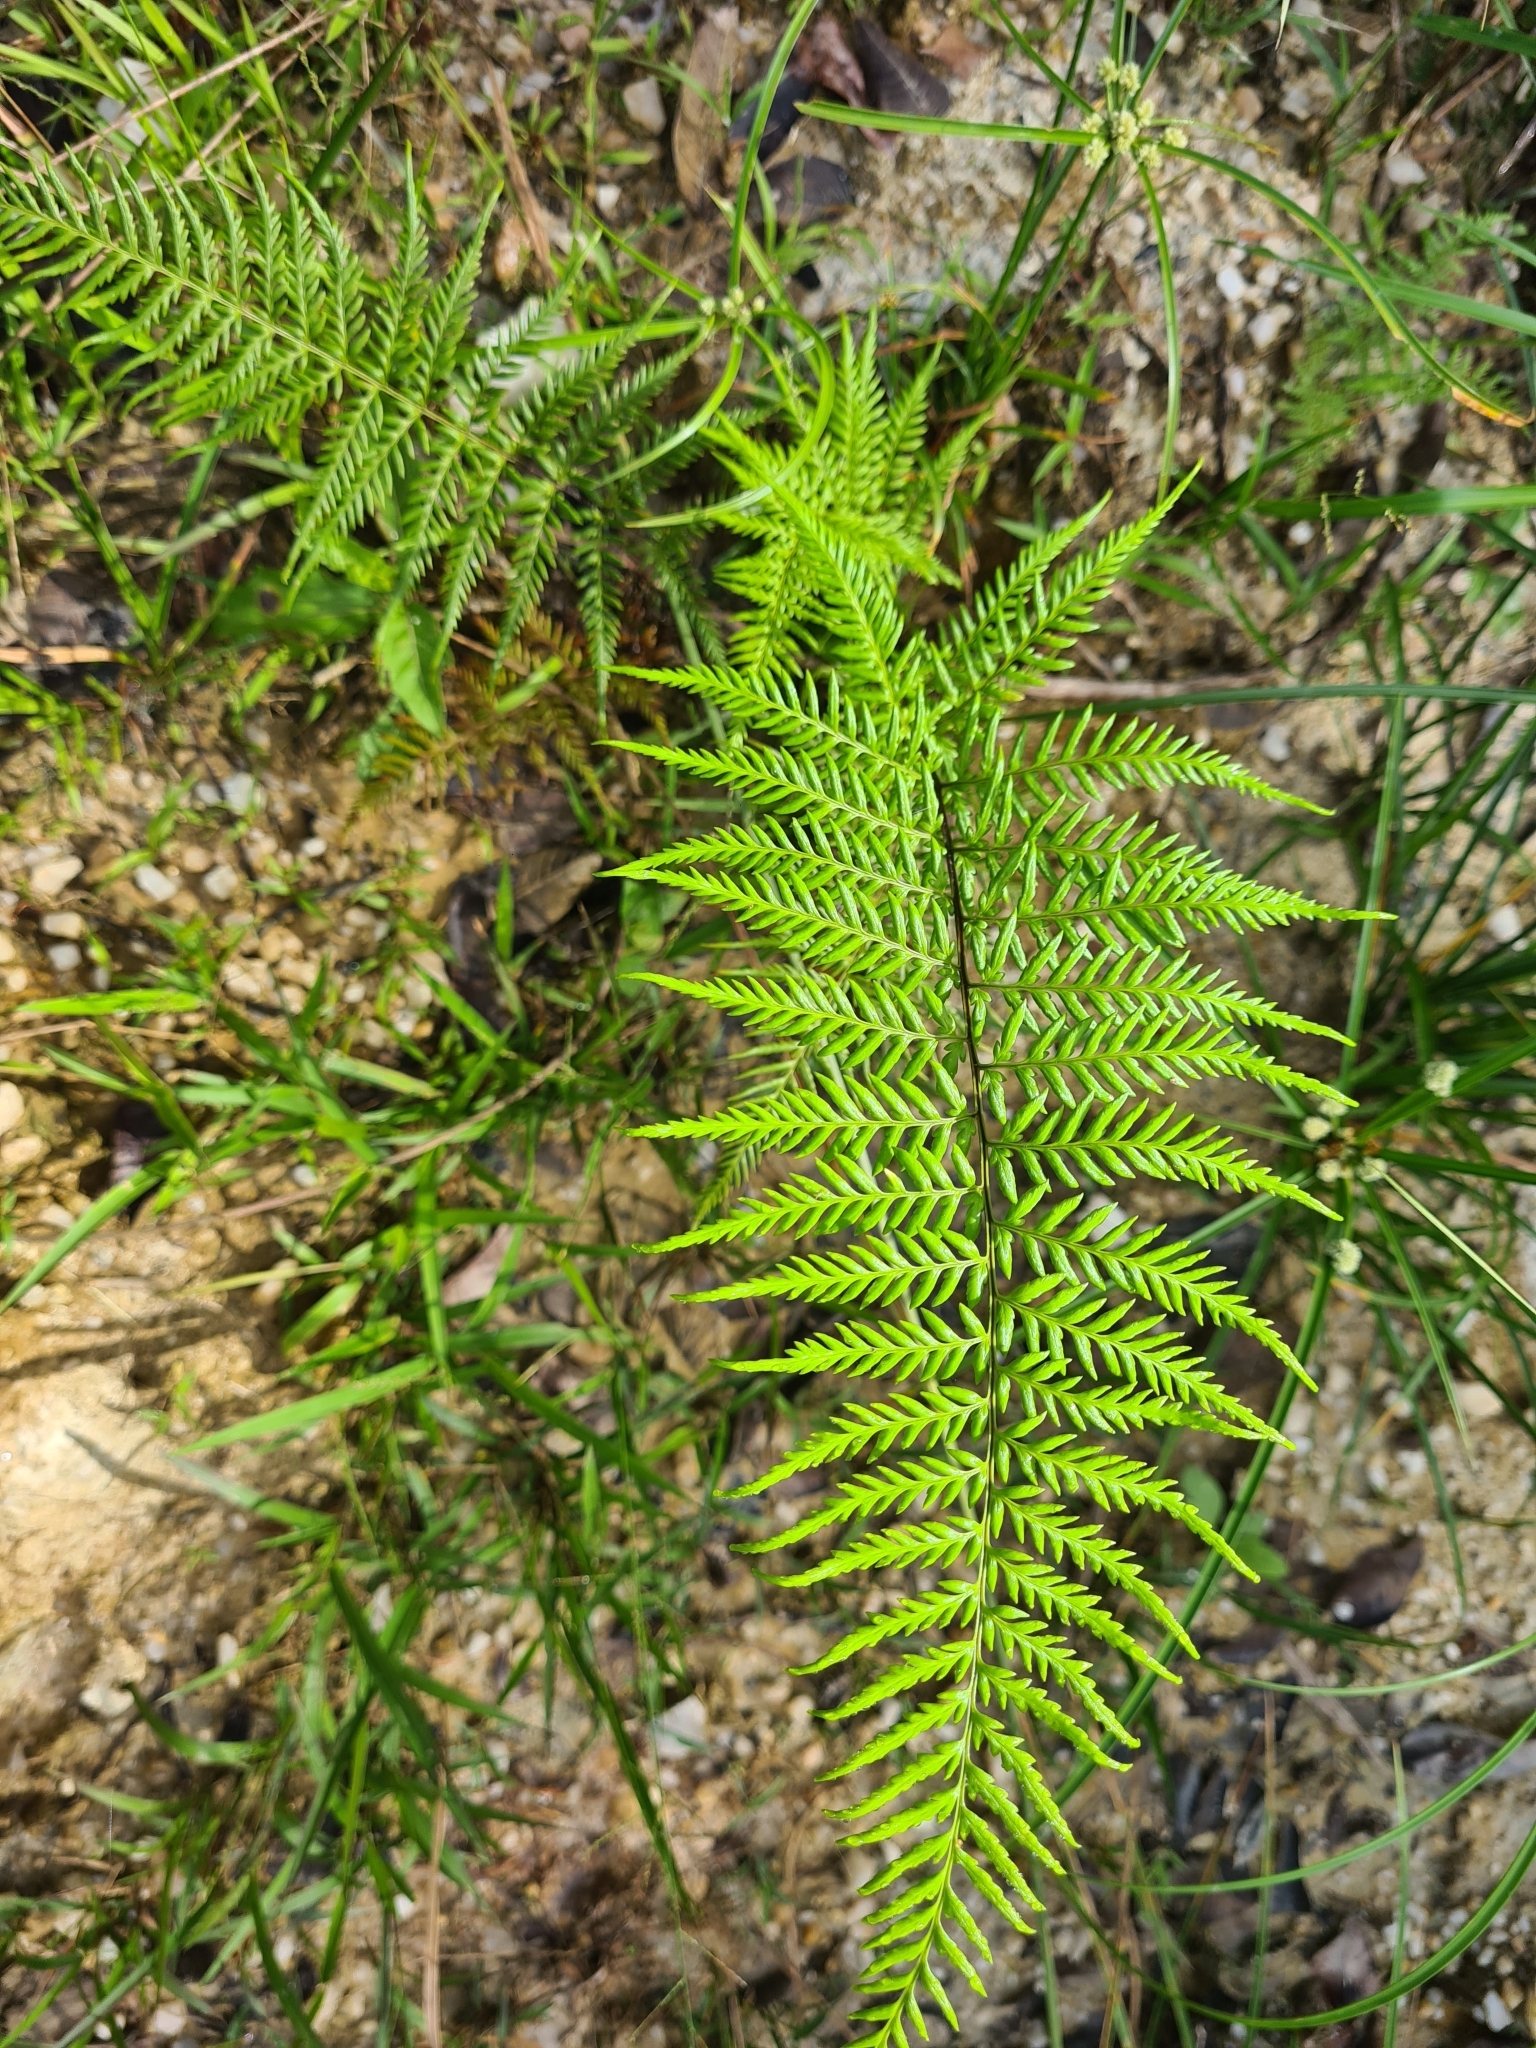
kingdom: Plantae
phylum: Tracheophyta
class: Polypodiopsida
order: Polypodiales
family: Pteridaceae
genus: Pityrogramma
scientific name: Pityrogramma calomelanos
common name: Dixie silverback fern
